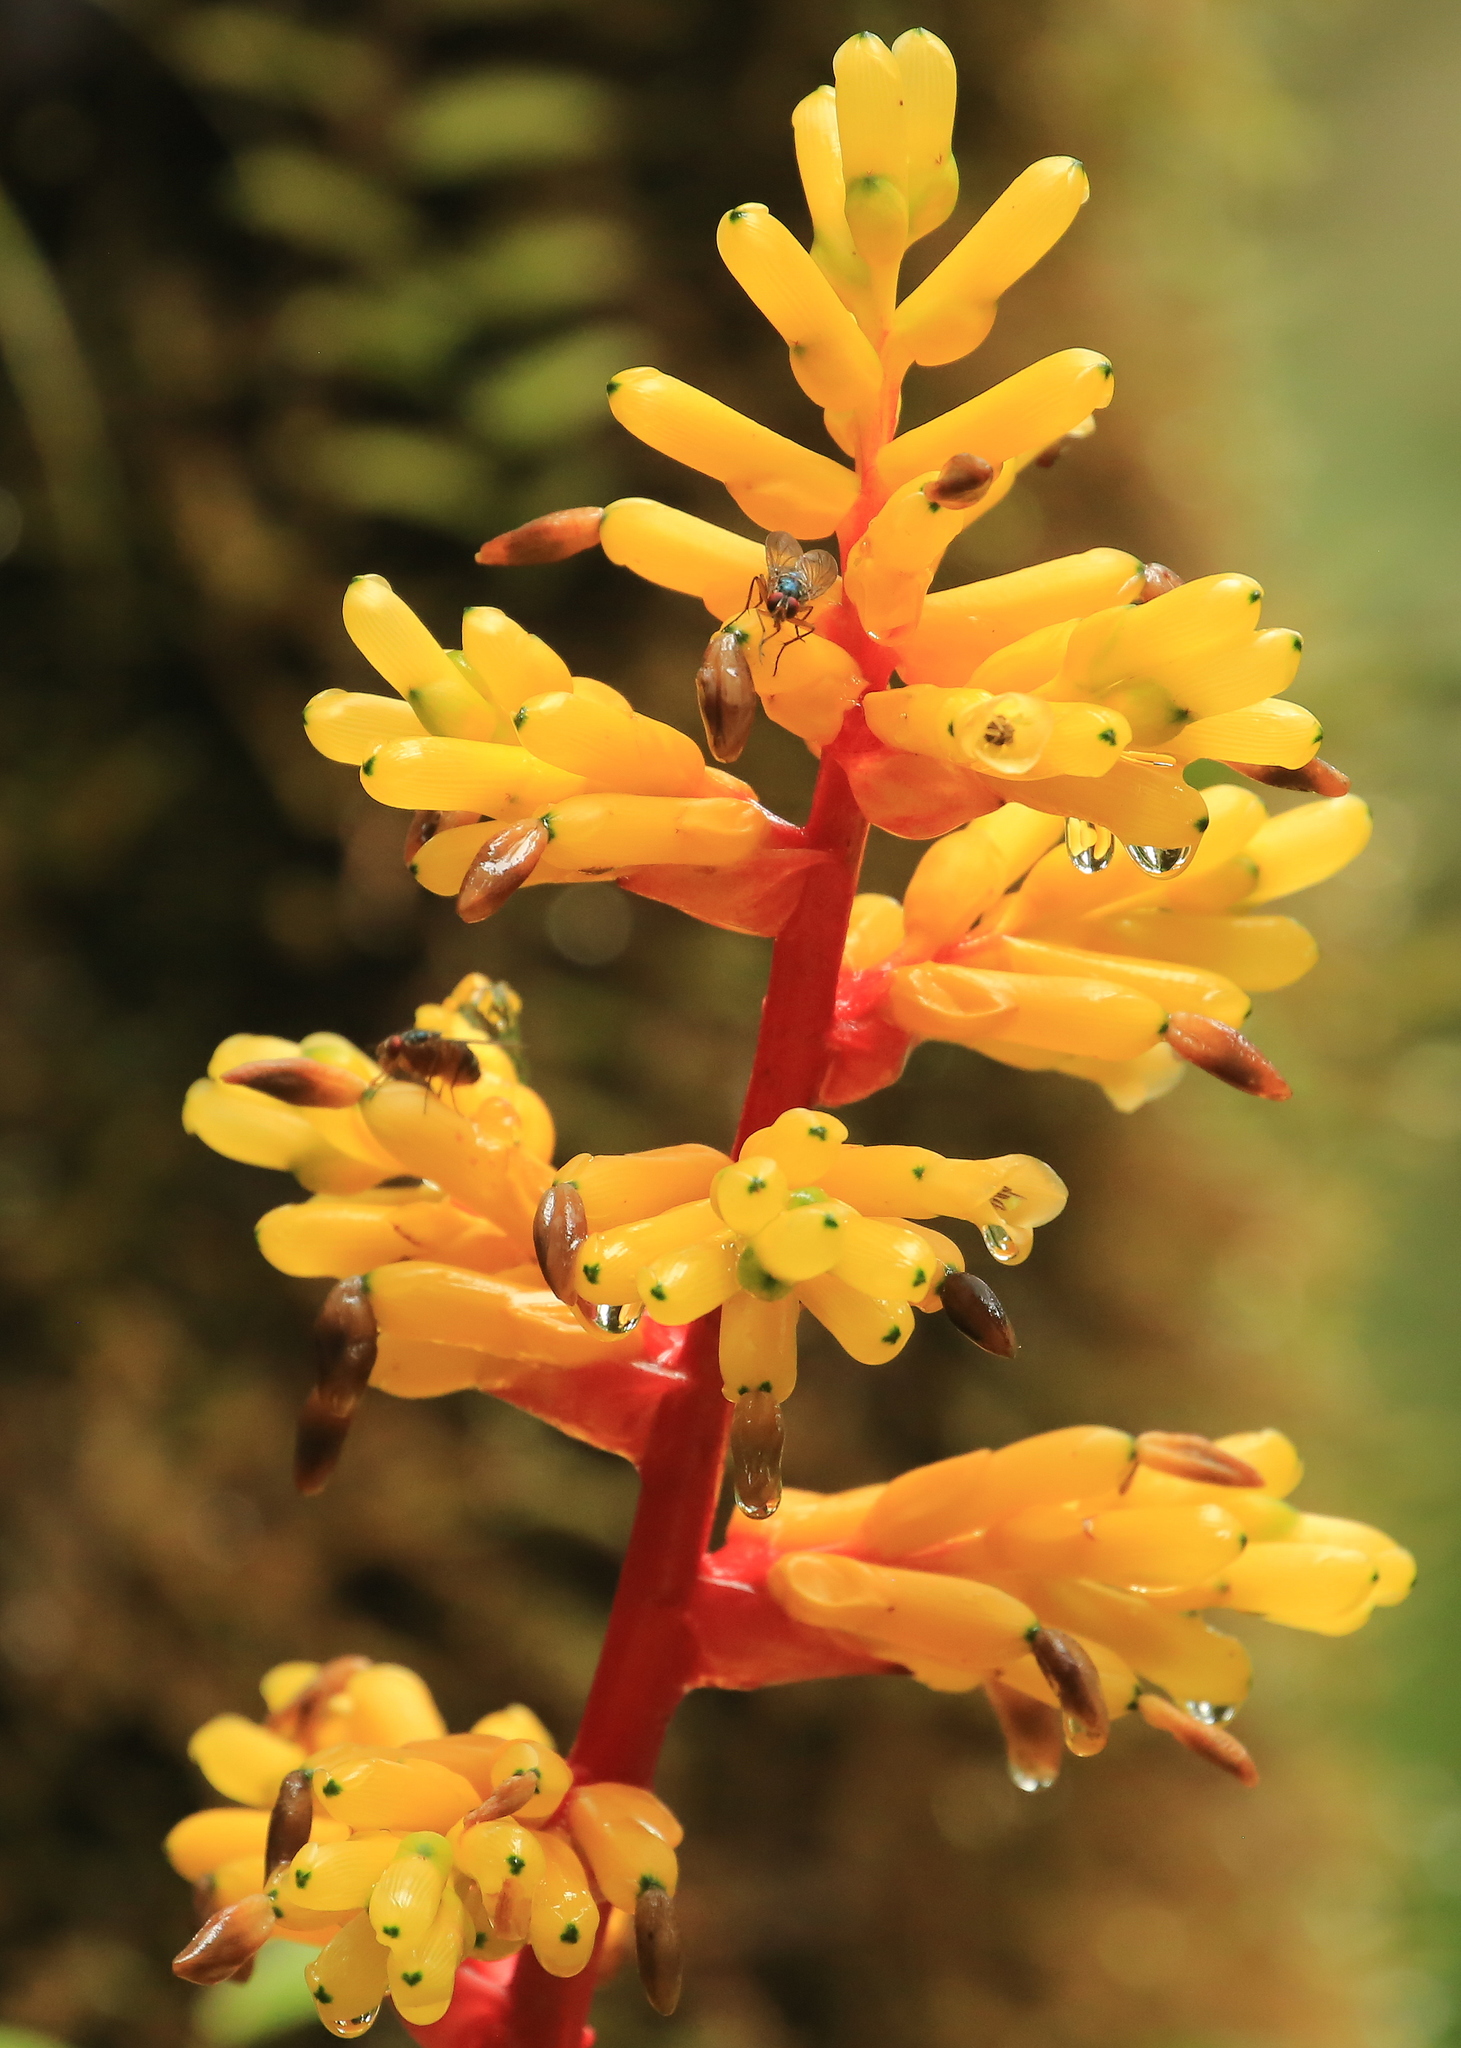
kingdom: Plantae
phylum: Tracheophyta
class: Liliopsida
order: Poales
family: Bromeliaceae
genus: Guzmania
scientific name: Guzmania testudinis
